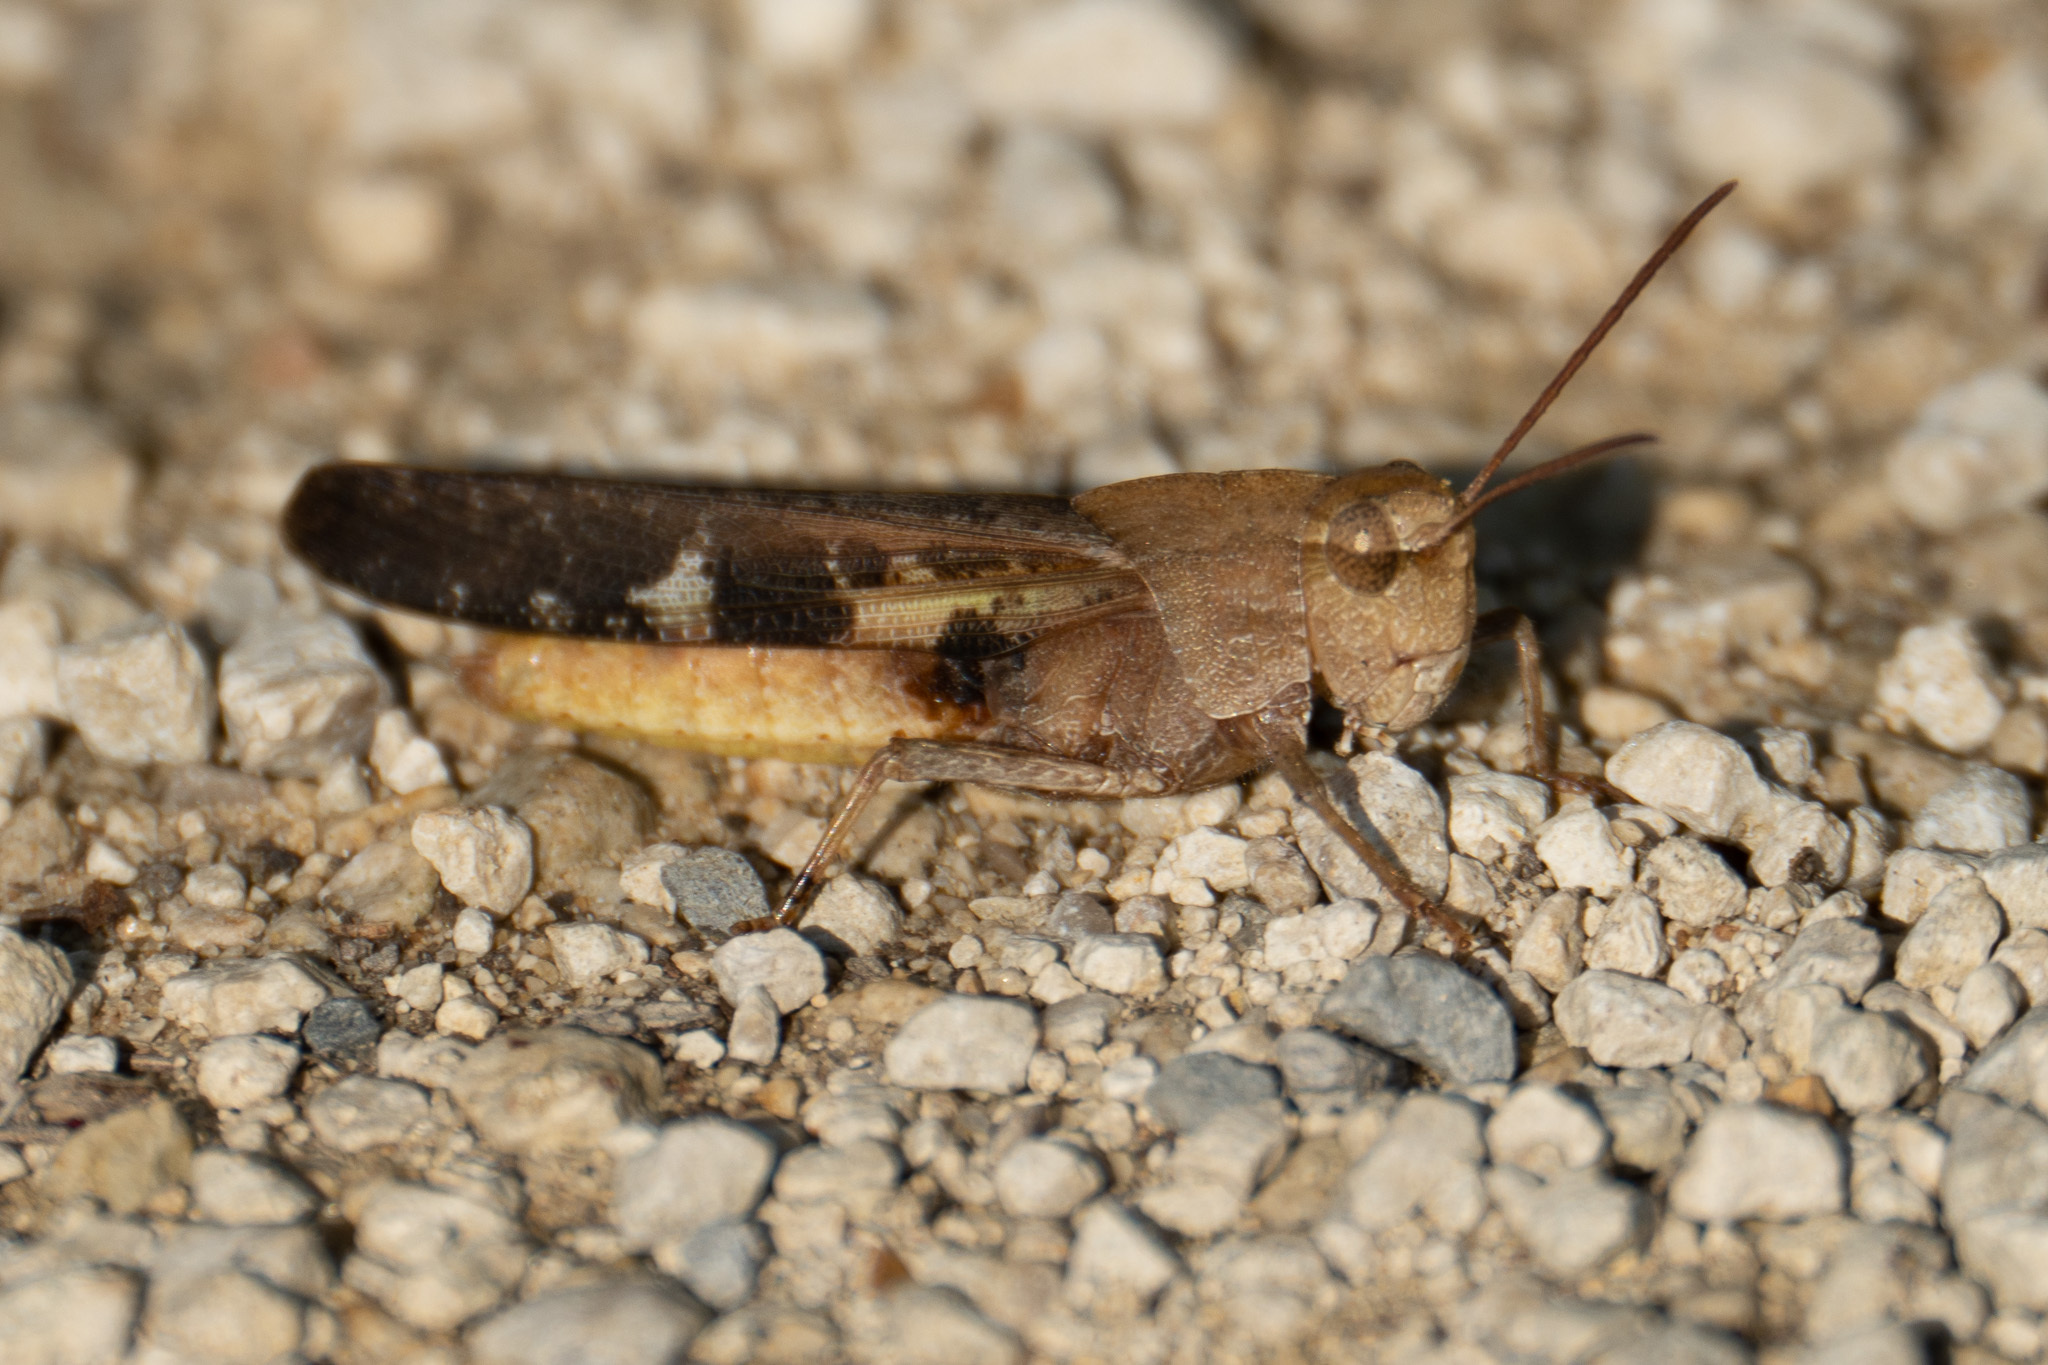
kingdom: Animalia
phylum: Arthropoda
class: Insecta
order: Orthoptera
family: Acrididae
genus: Chortophaga
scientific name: Chortophaga viridifasciata
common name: Green-striped grasshopper
